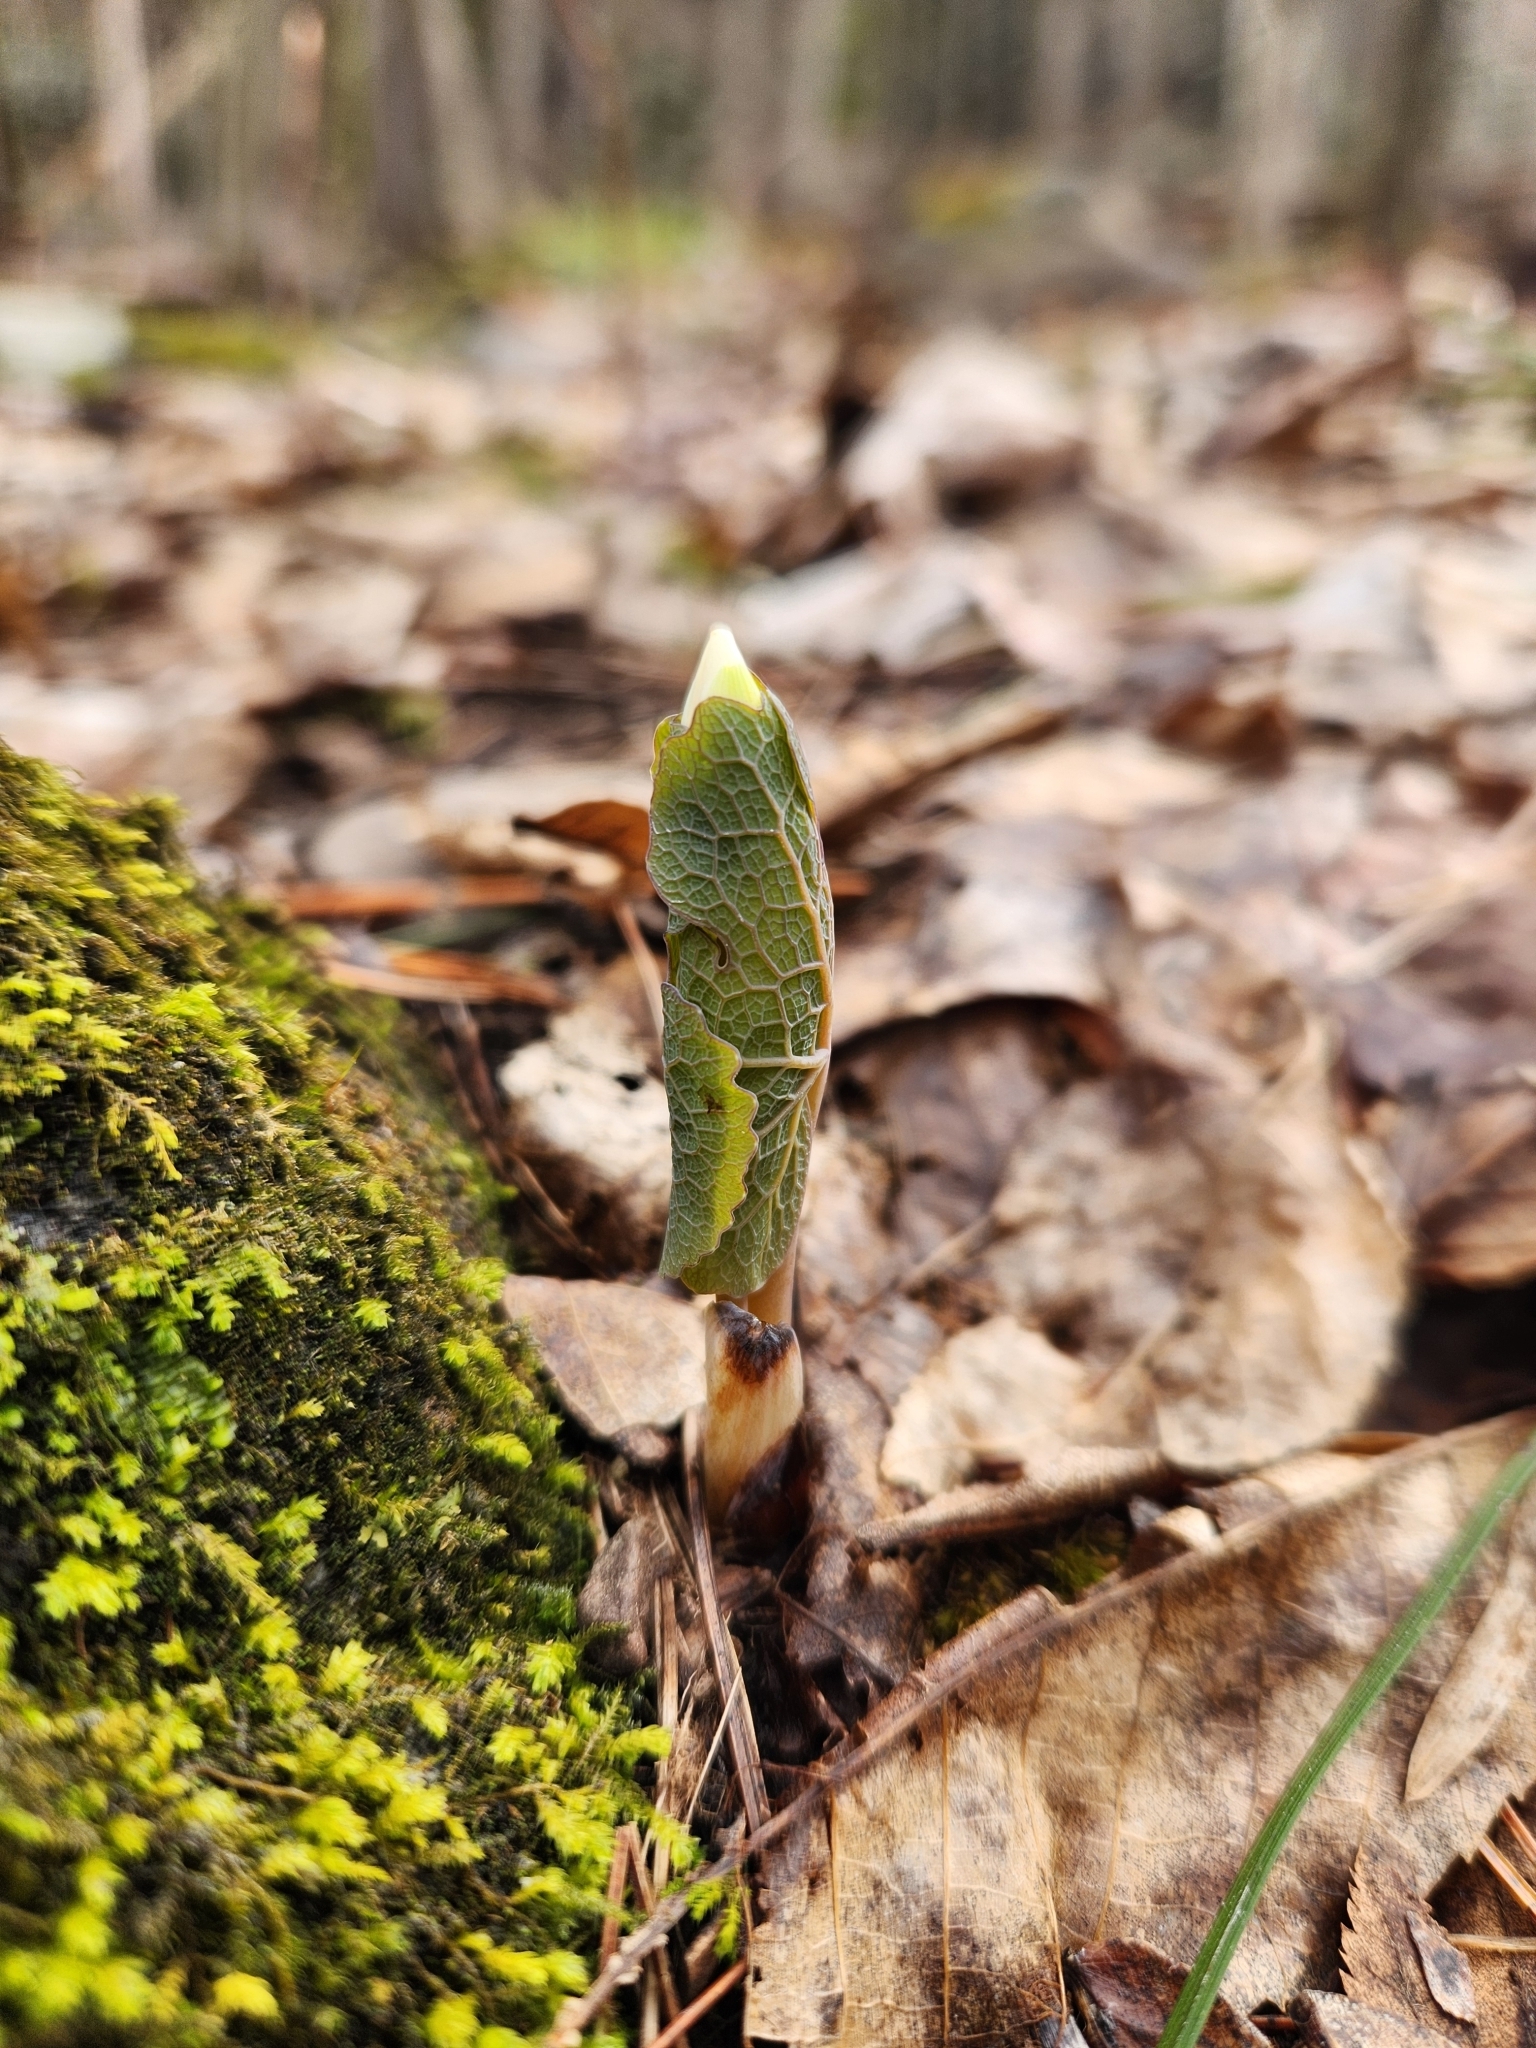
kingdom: Plantae
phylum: Tracheophyta
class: Magnoliopsida
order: Ranunculales
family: Papaveraceae
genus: Sanguinaria
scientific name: Sanguinaria canadensis
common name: Bloodroot
